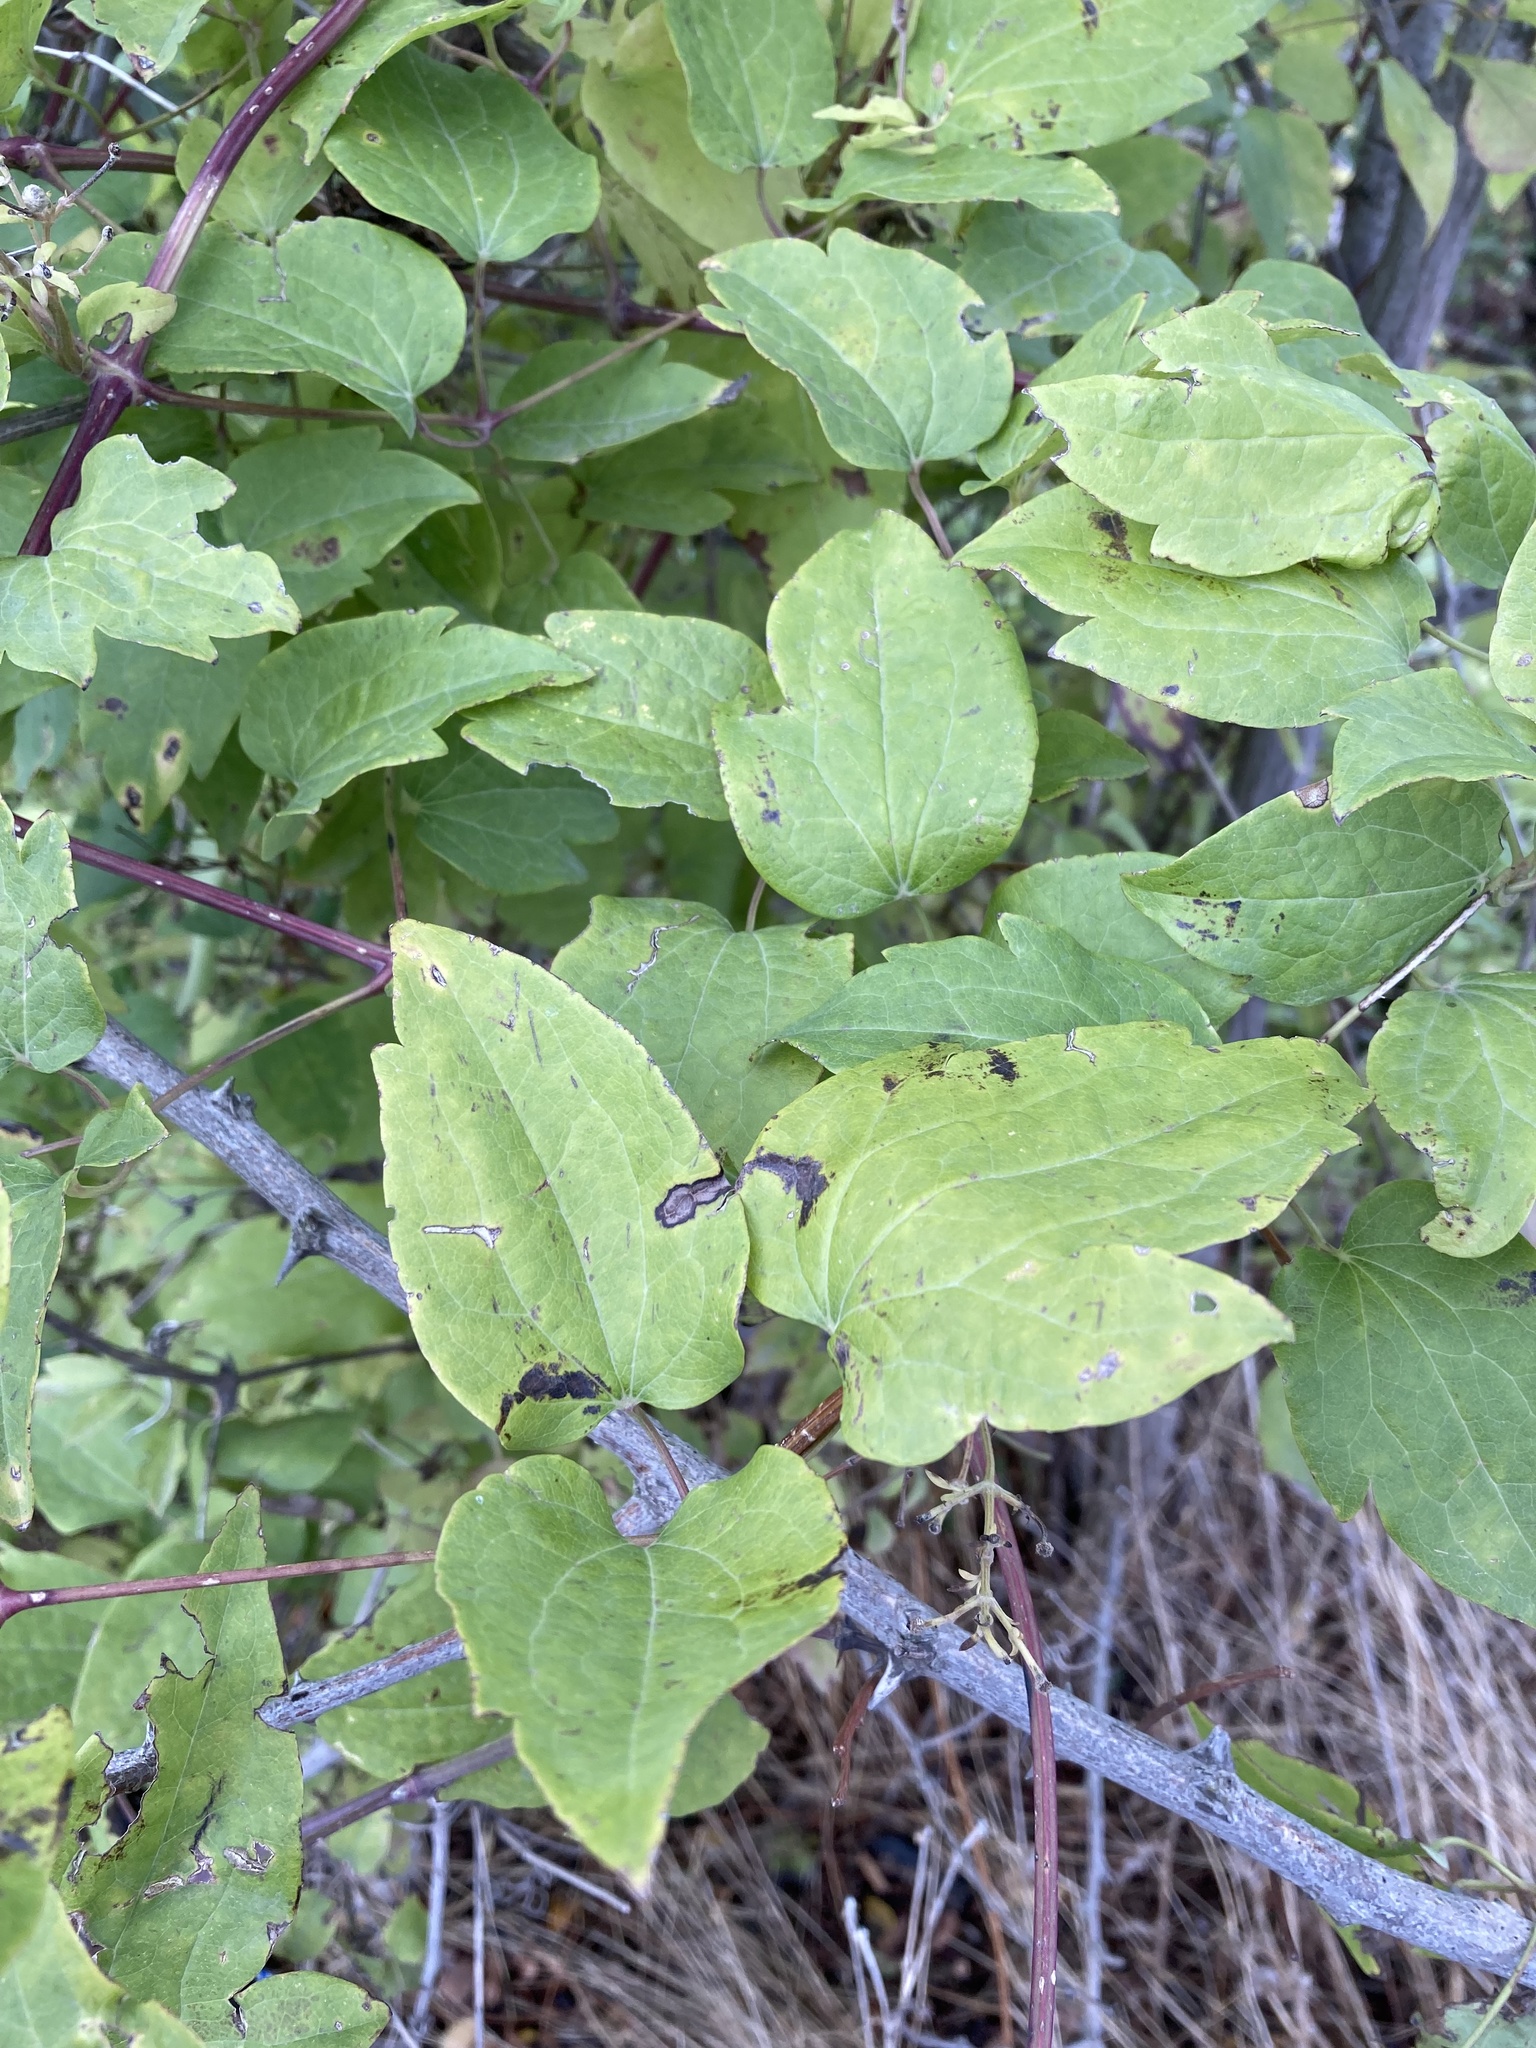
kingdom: Plantae
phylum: Tracheophyta
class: Magnoliopsida
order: Ranunculales
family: Ranunculaceae
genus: Clematis
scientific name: Clematis vitalba
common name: Evergreen clematis
